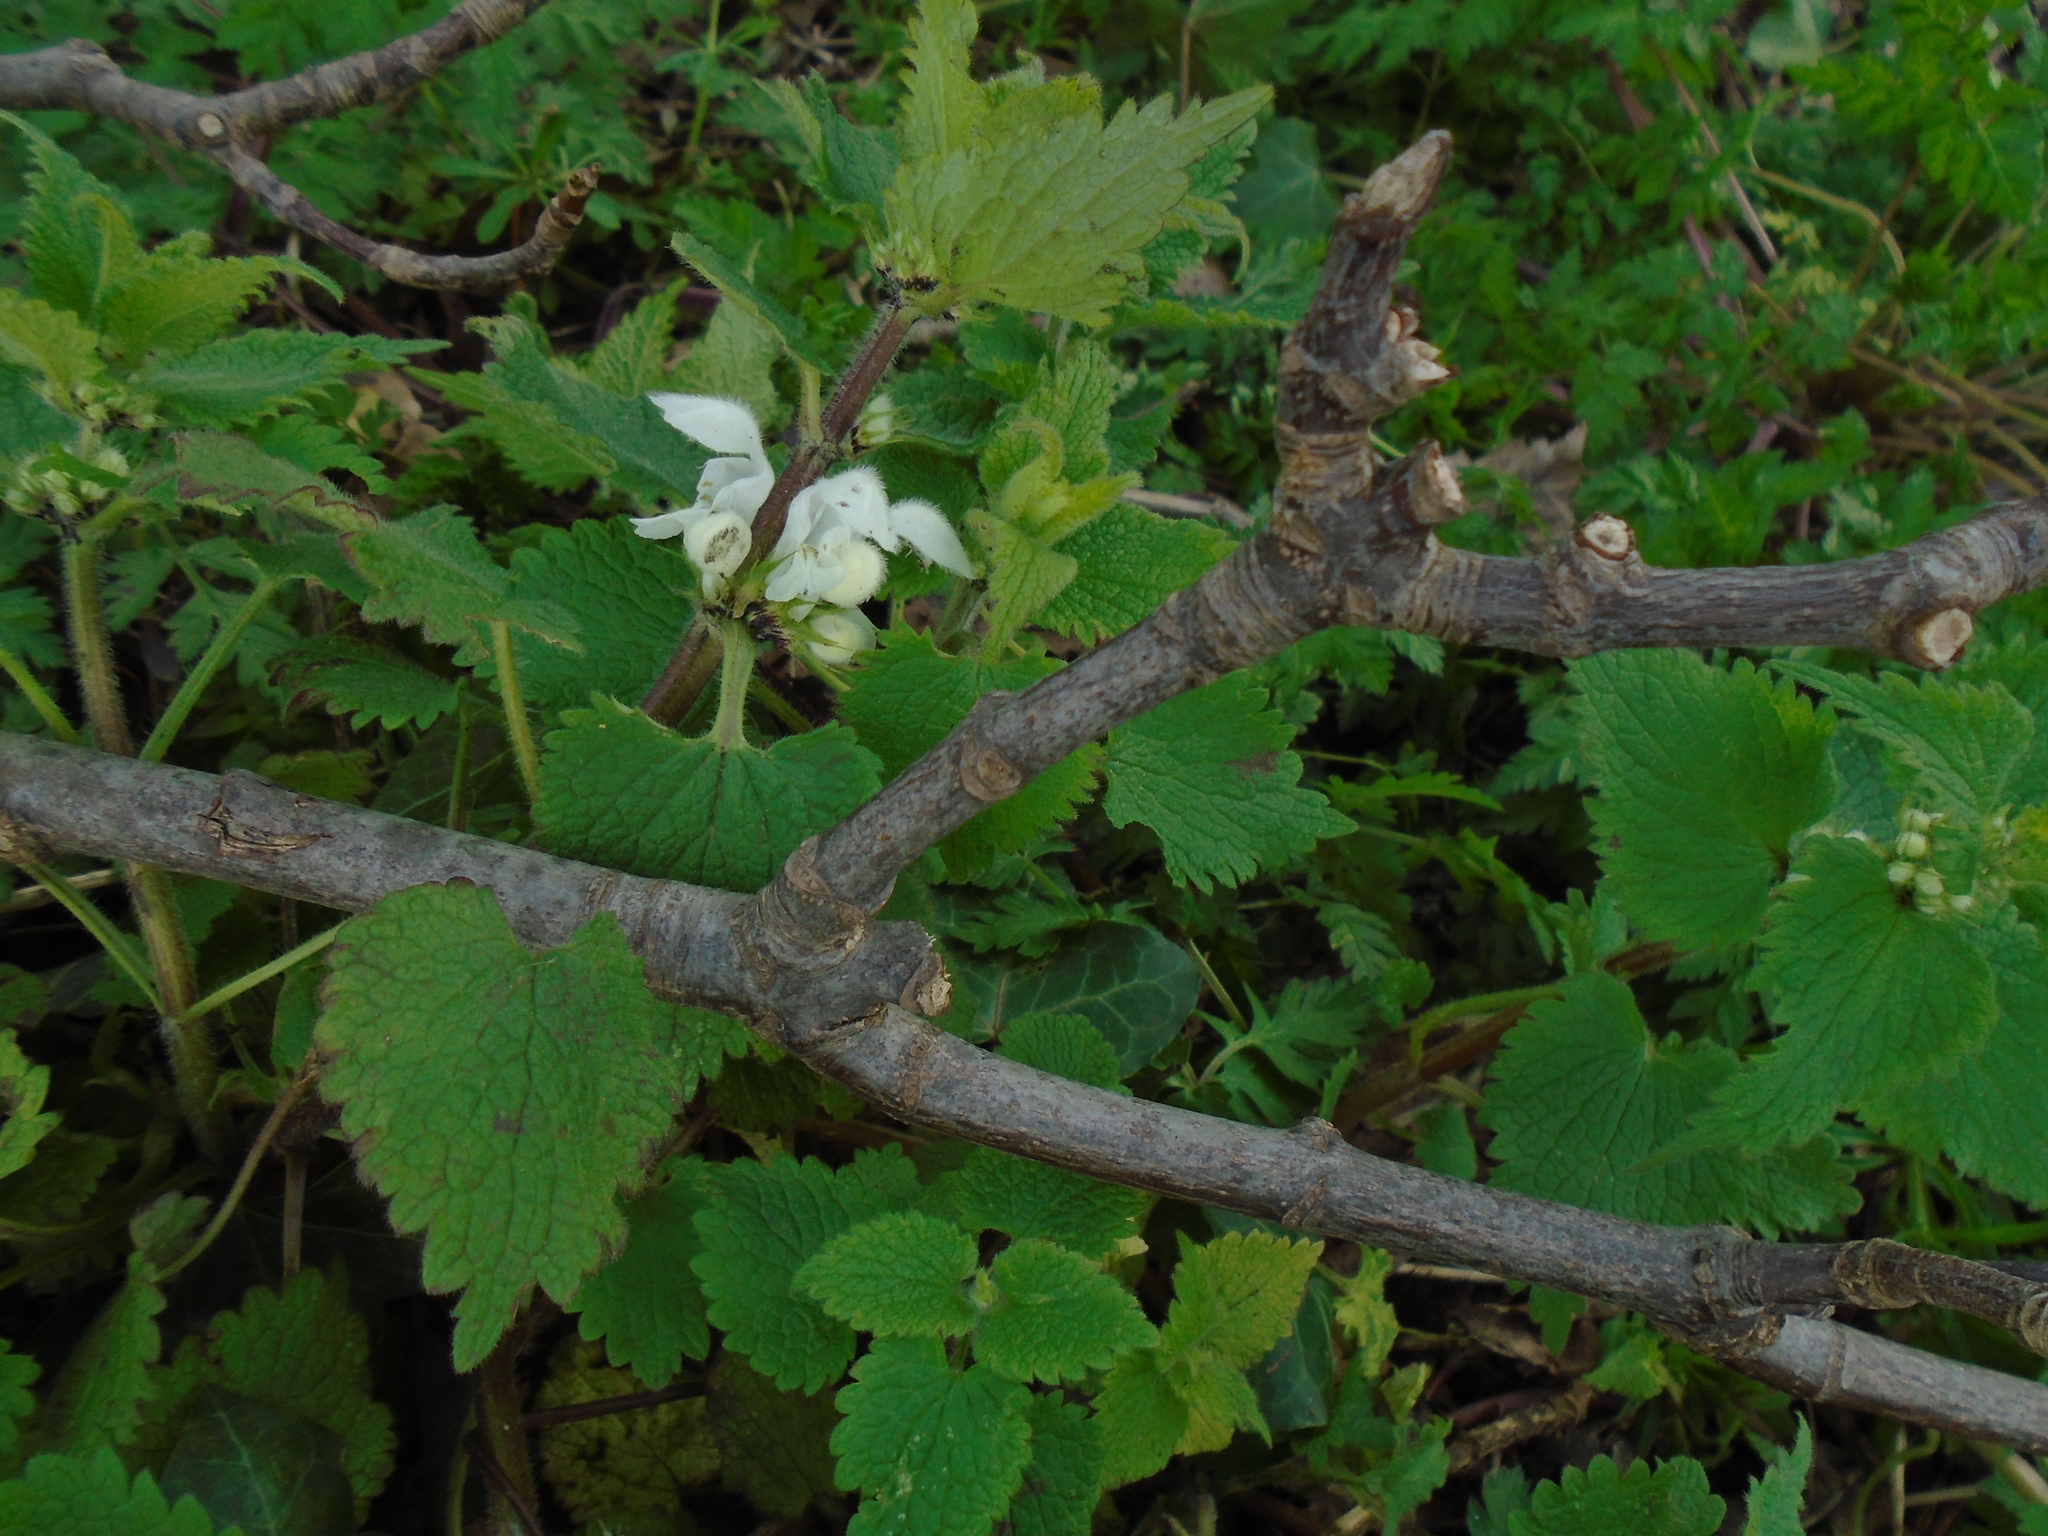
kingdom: Plantae
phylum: Tracheophyta
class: Magnoliopsida
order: Lamiales
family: Lamiaceae
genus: Lamium
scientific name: Lamium album
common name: White dead-nettle
